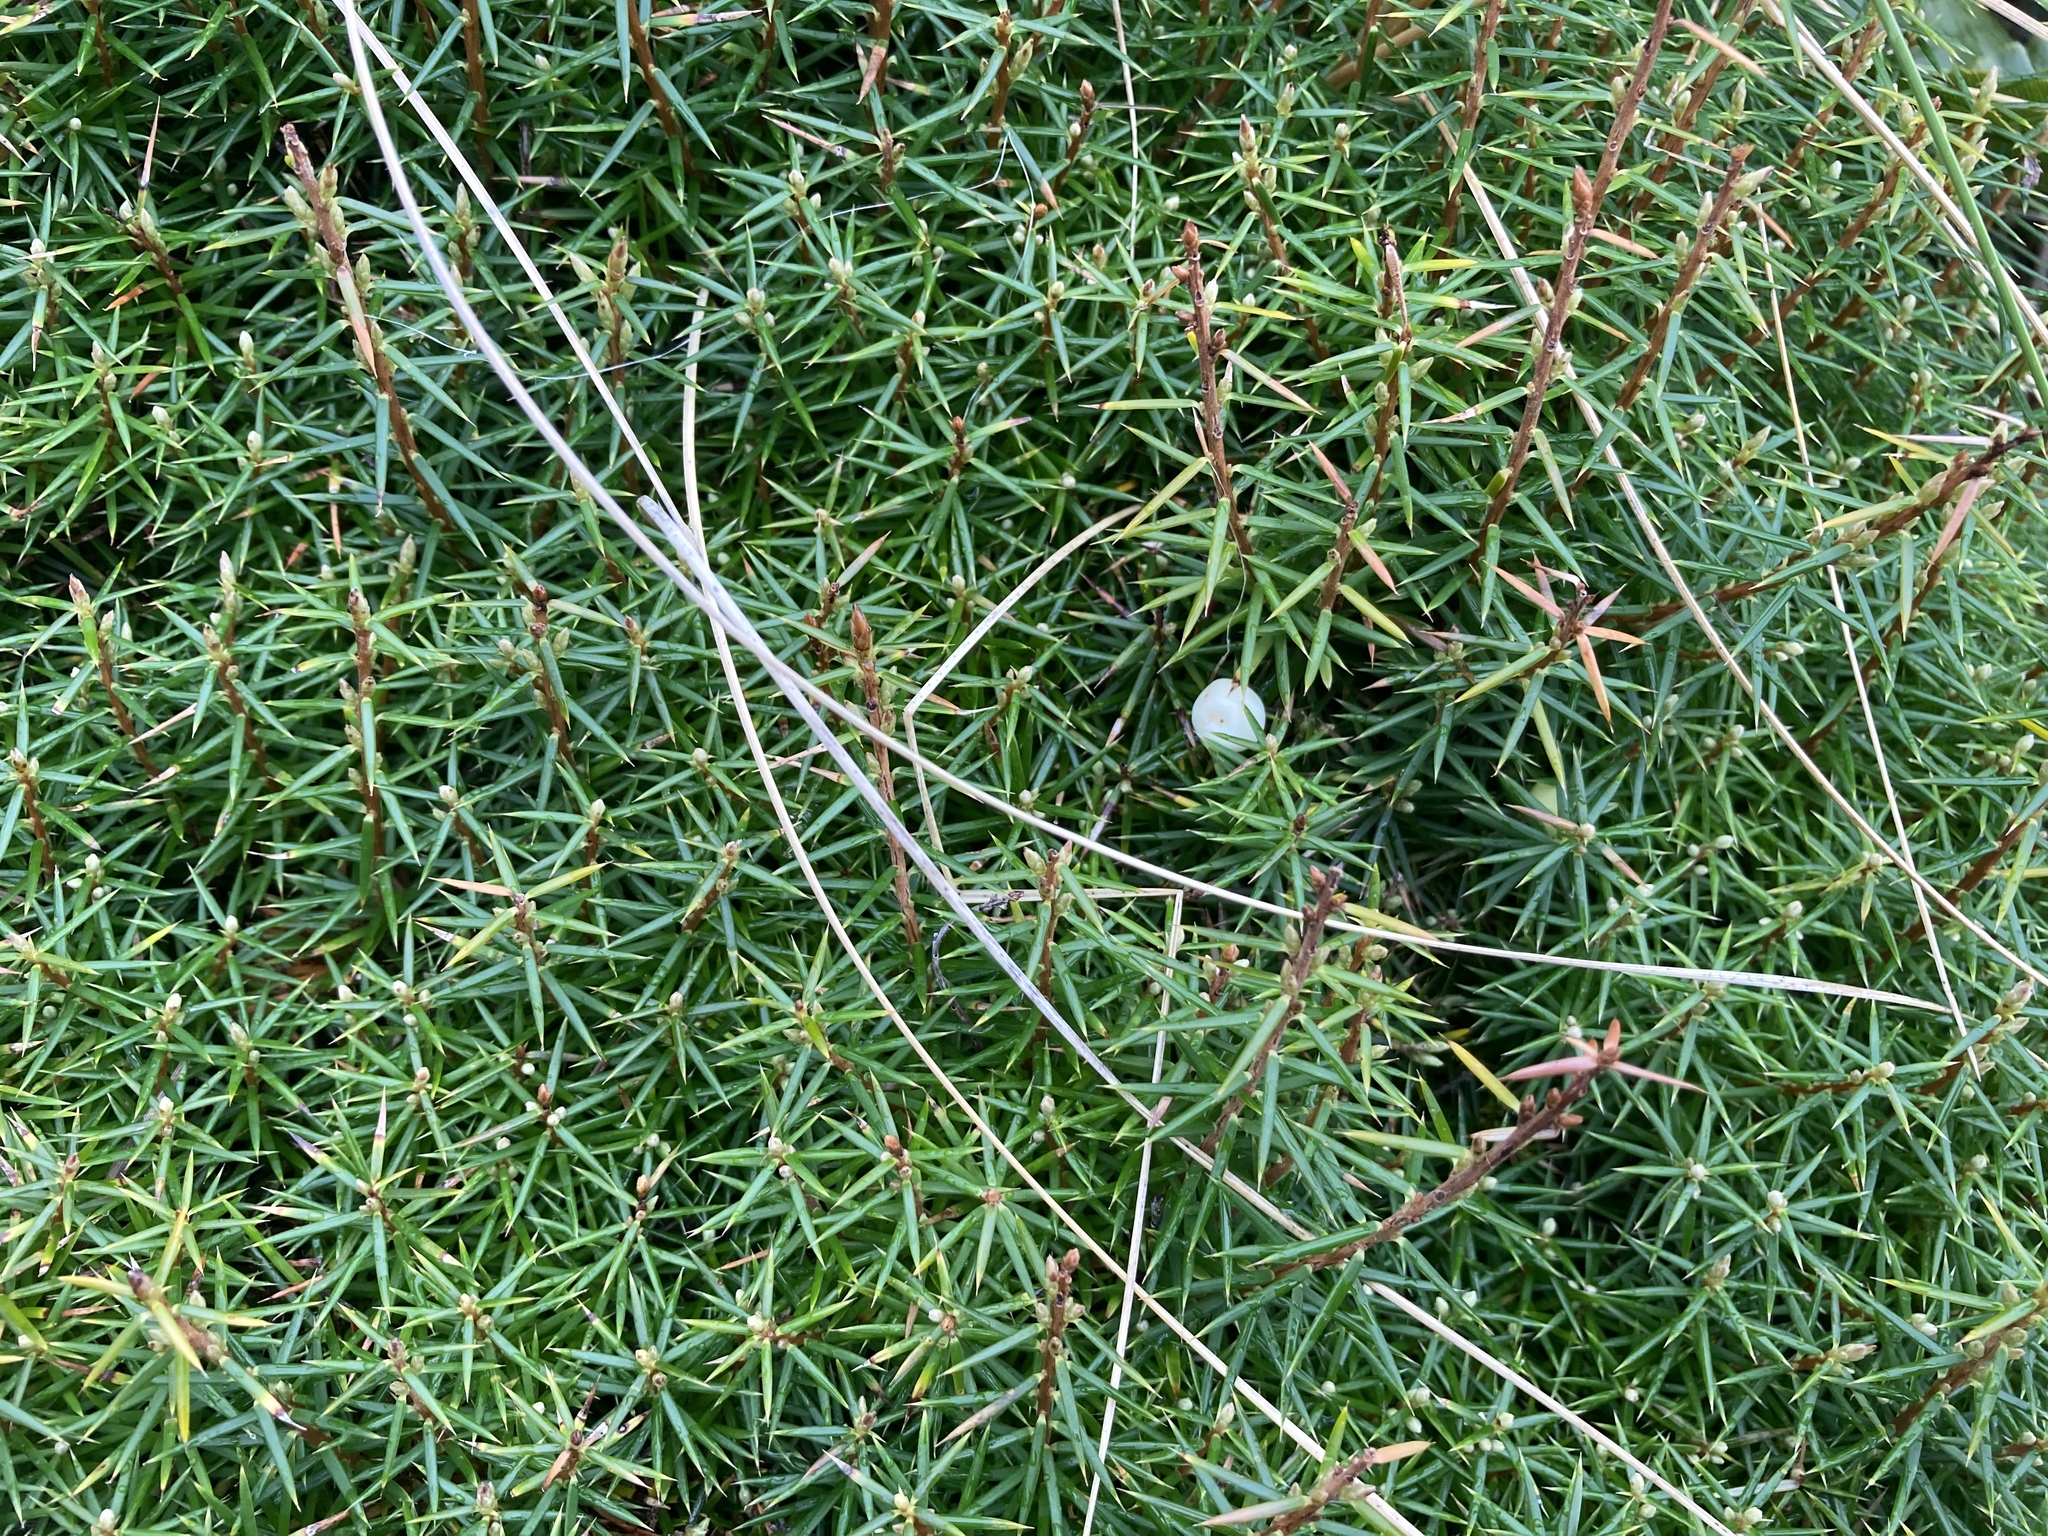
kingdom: Plantae
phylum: Tracheophyta
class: Magnoliopsida
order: Ericales
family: Ericaceae
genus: Leptecophylla
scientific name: Leptecophylla juniperina
